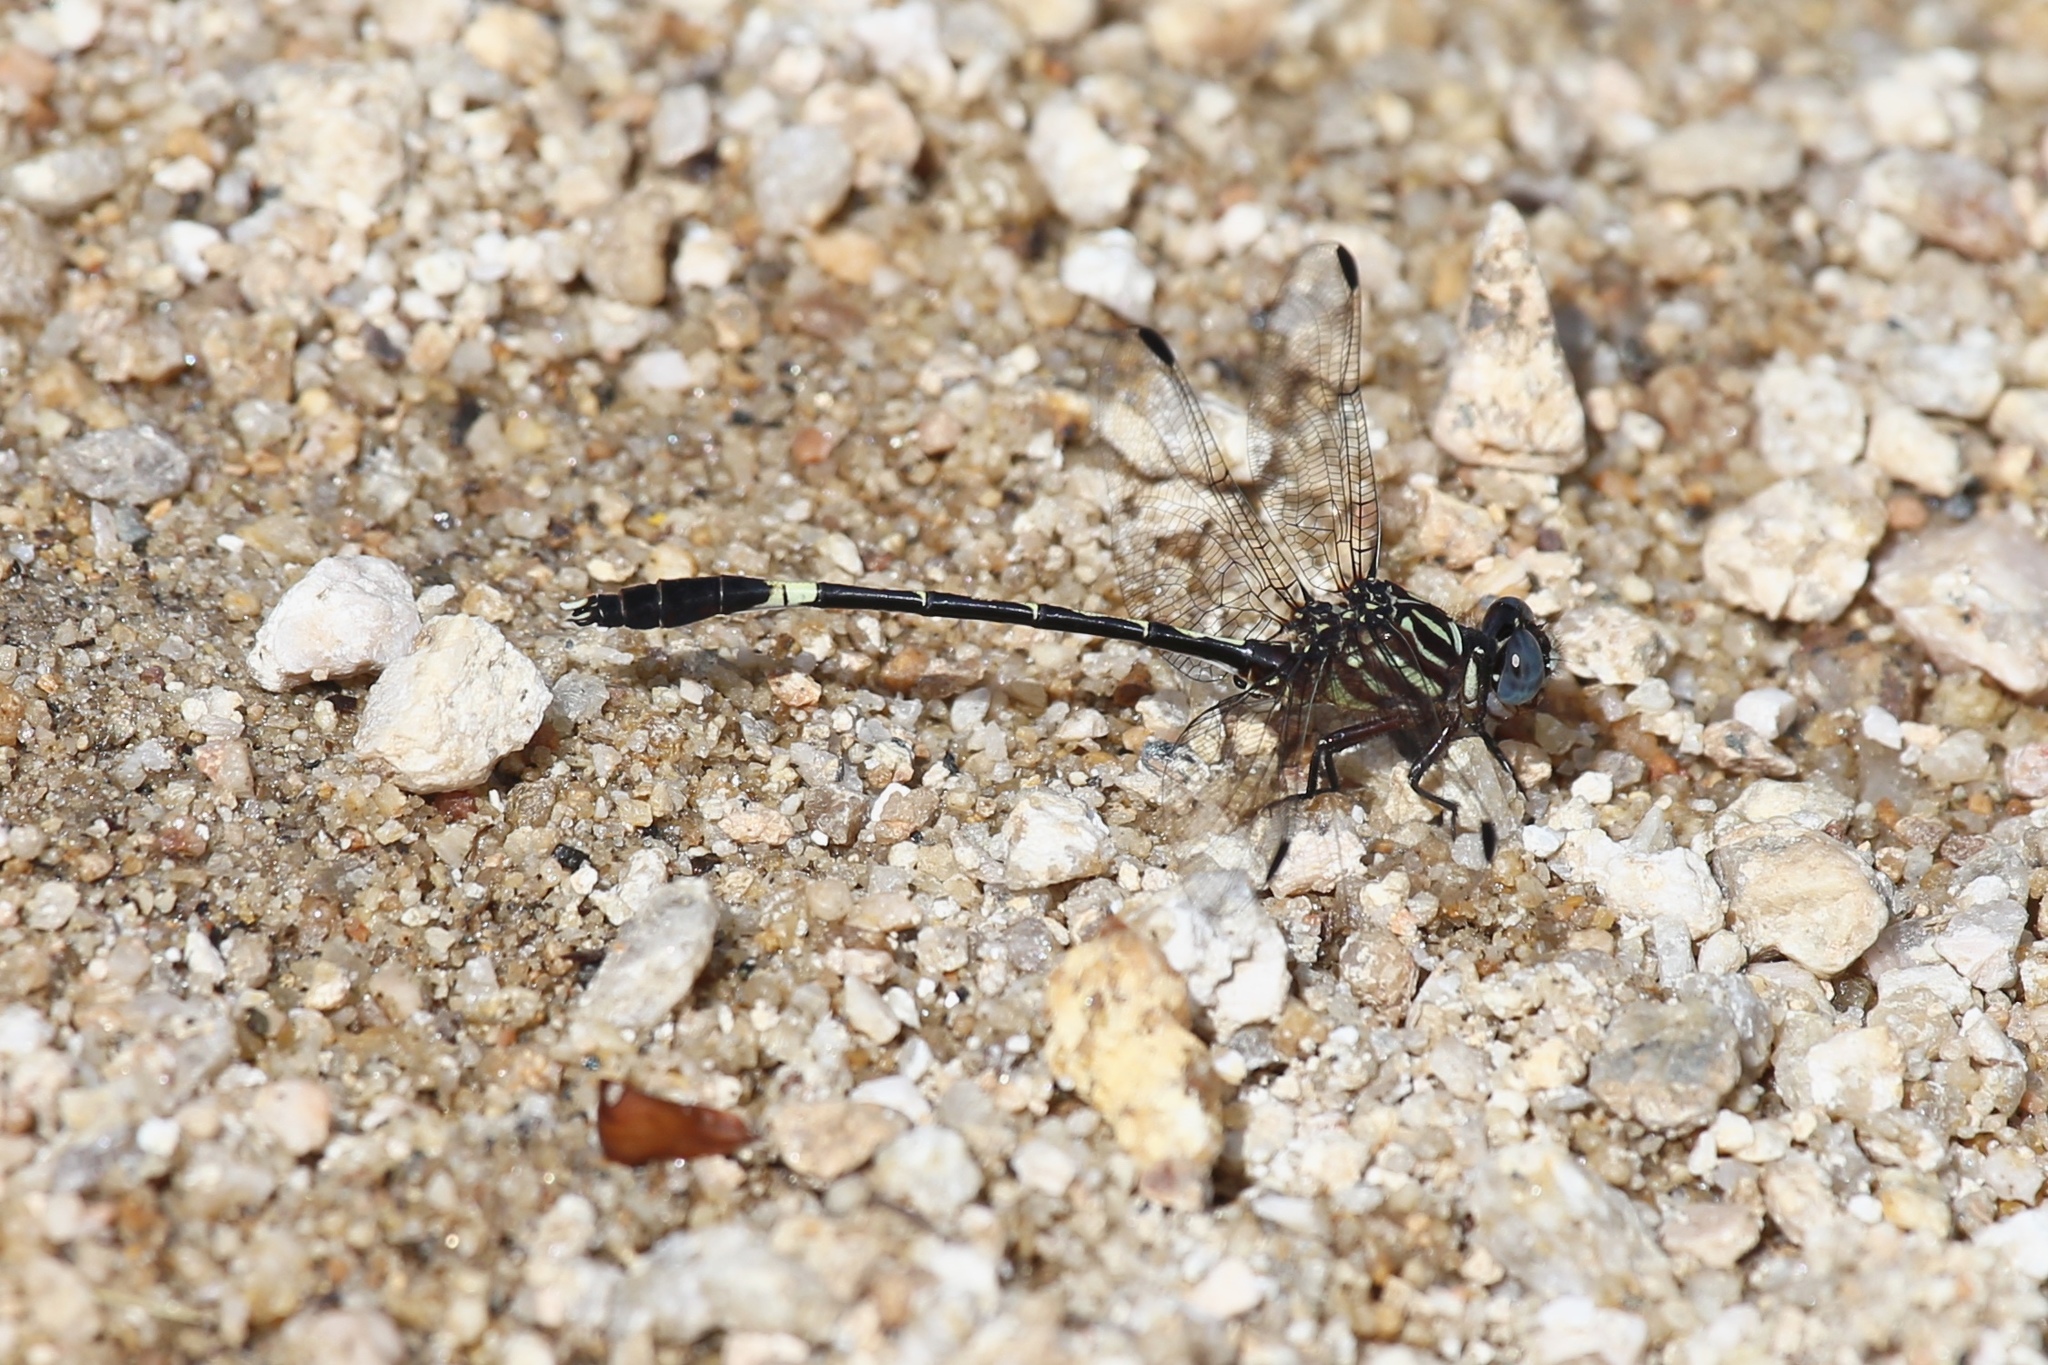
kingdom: Animalia
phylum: Arthropoda
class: Insecta
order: Odonata
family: Gomphidae
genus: Progomphus
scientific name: Progomphus clendoni
